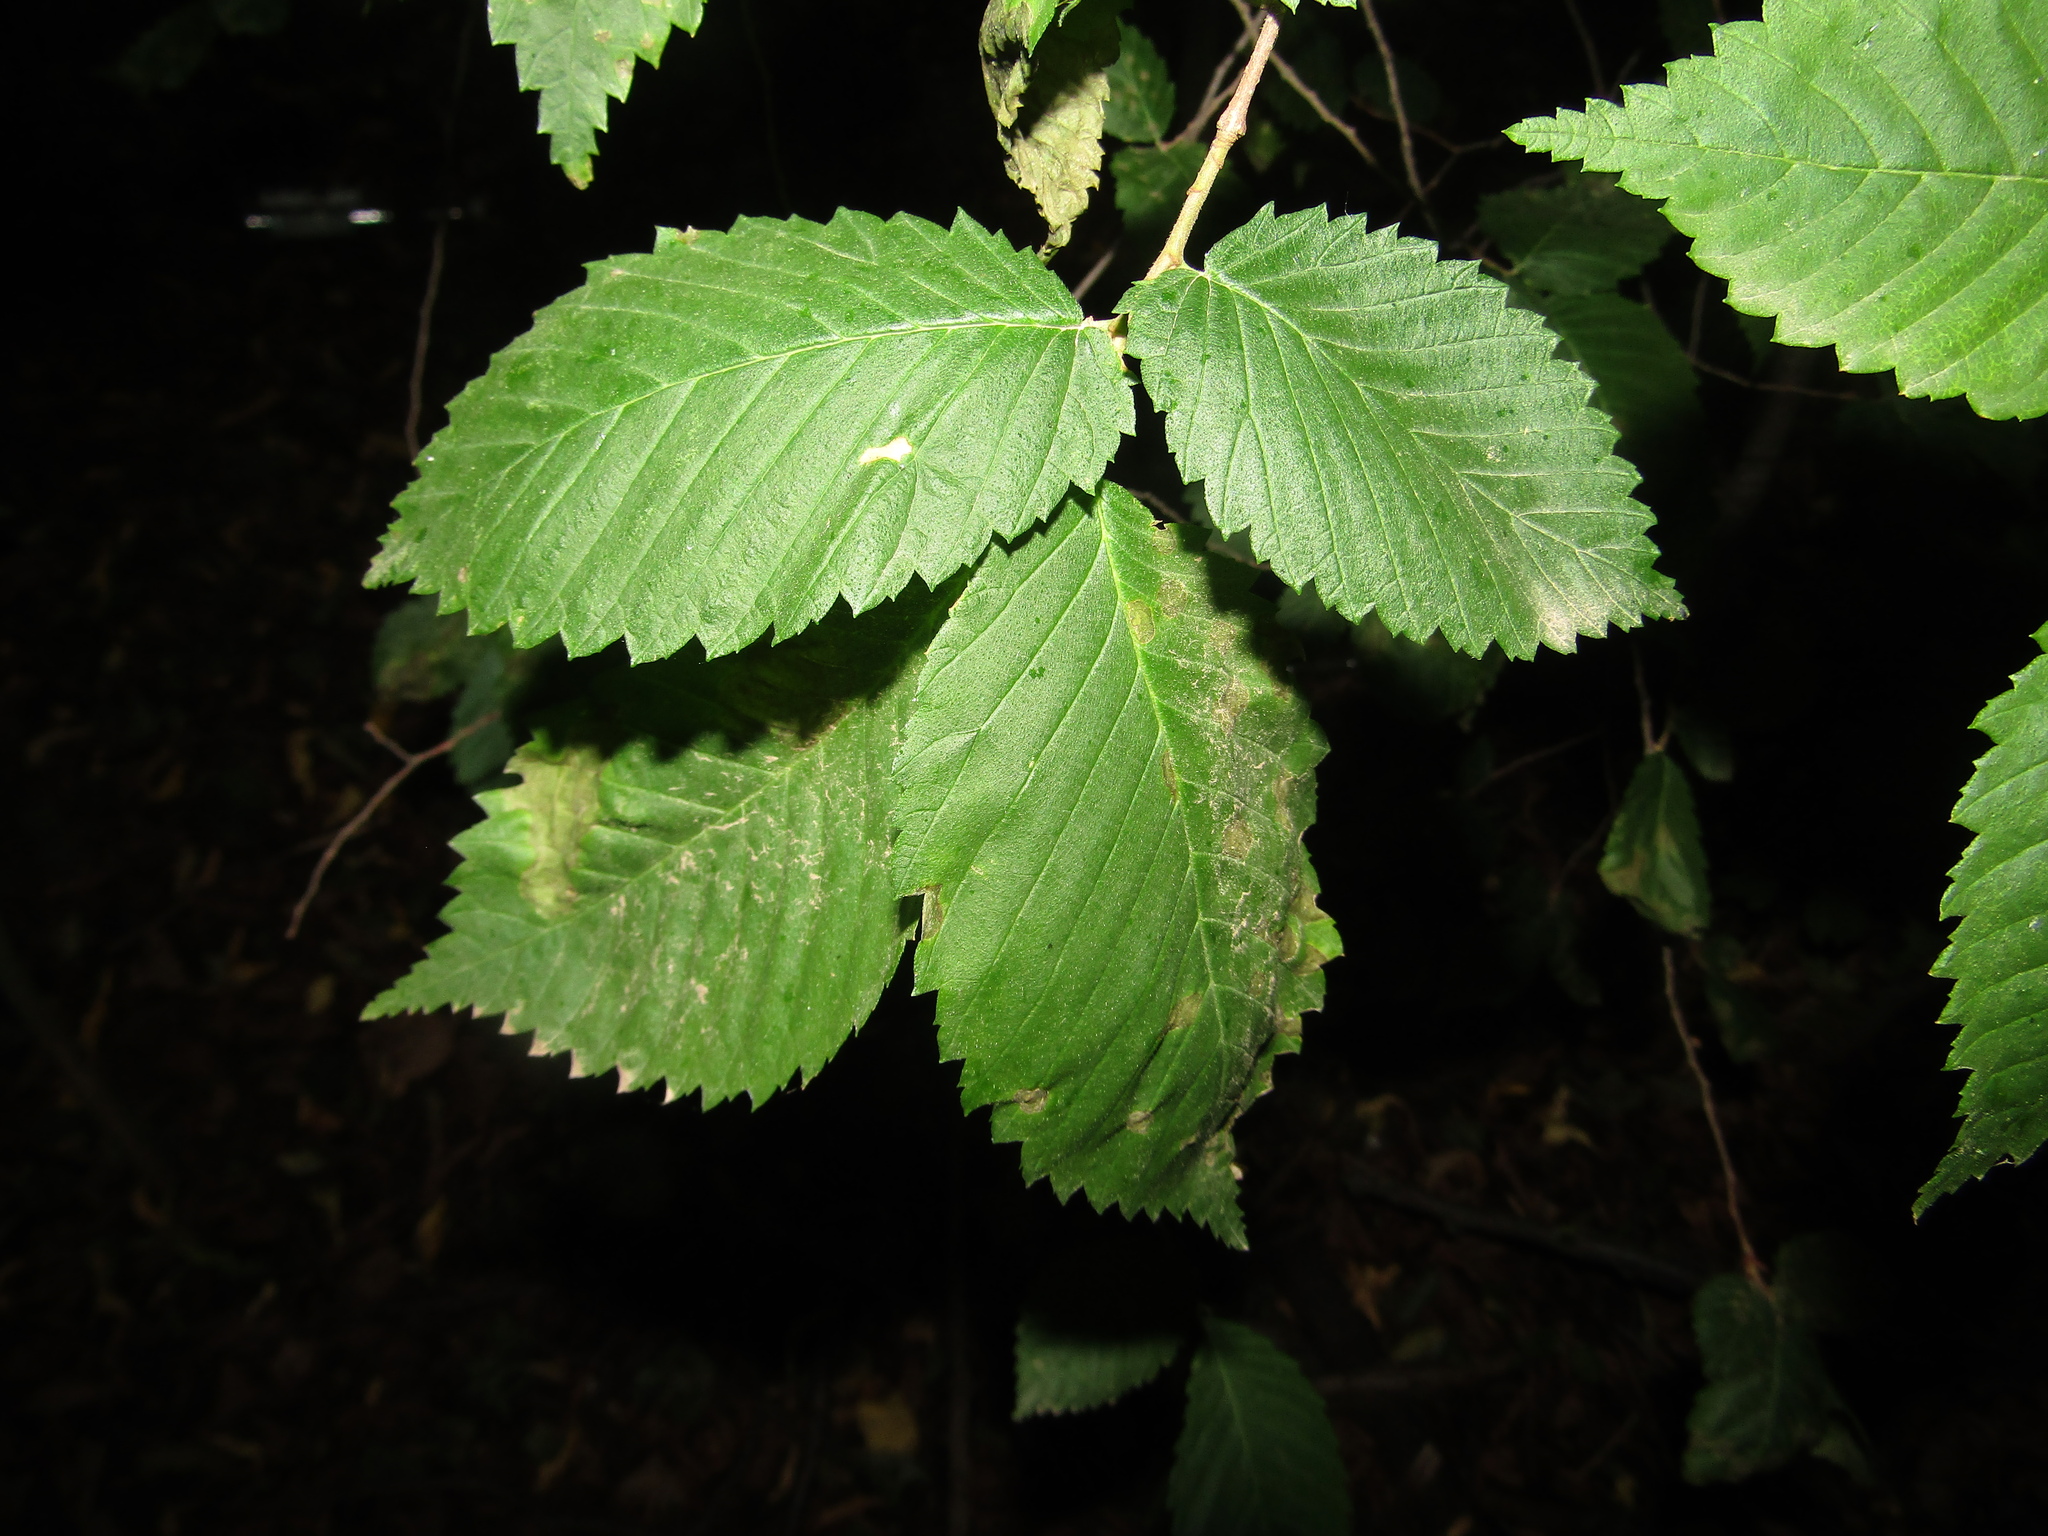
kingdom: Plantae
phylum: Tracheophyta
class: Magnoliopsida
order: Rosales
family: Ulmaceae
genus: Ulmus
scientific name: Ulmus laevis
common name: European white-elm
